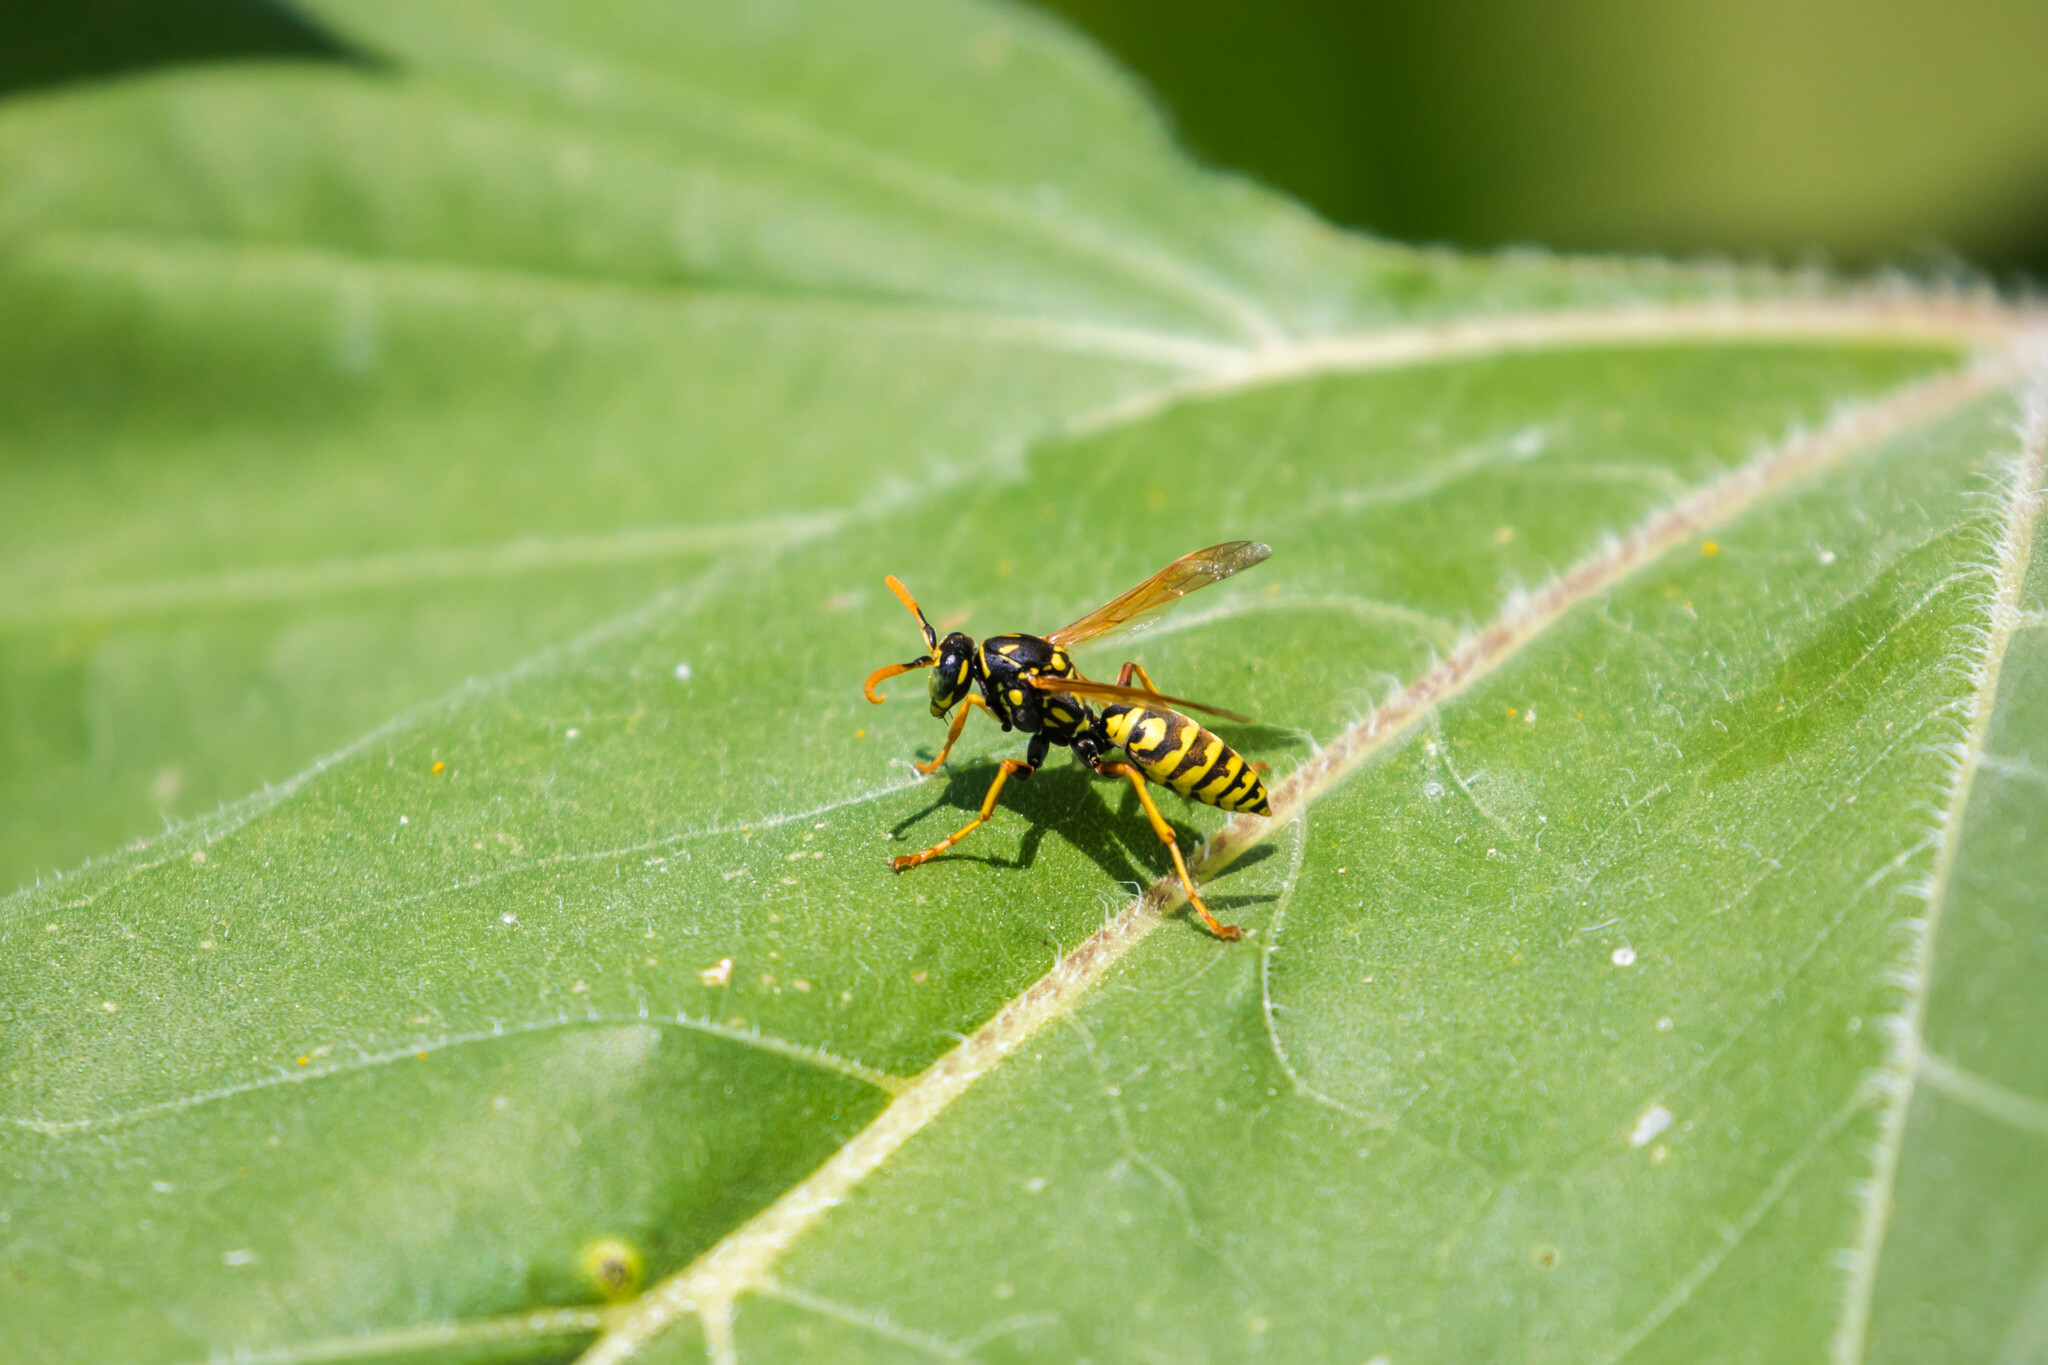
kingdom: Animalia
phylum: Arthropoda
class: Insecta
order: Hymenoptera
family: Eumenidae
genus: Polistes
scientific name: Polistes dominula
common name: Paper wasp
